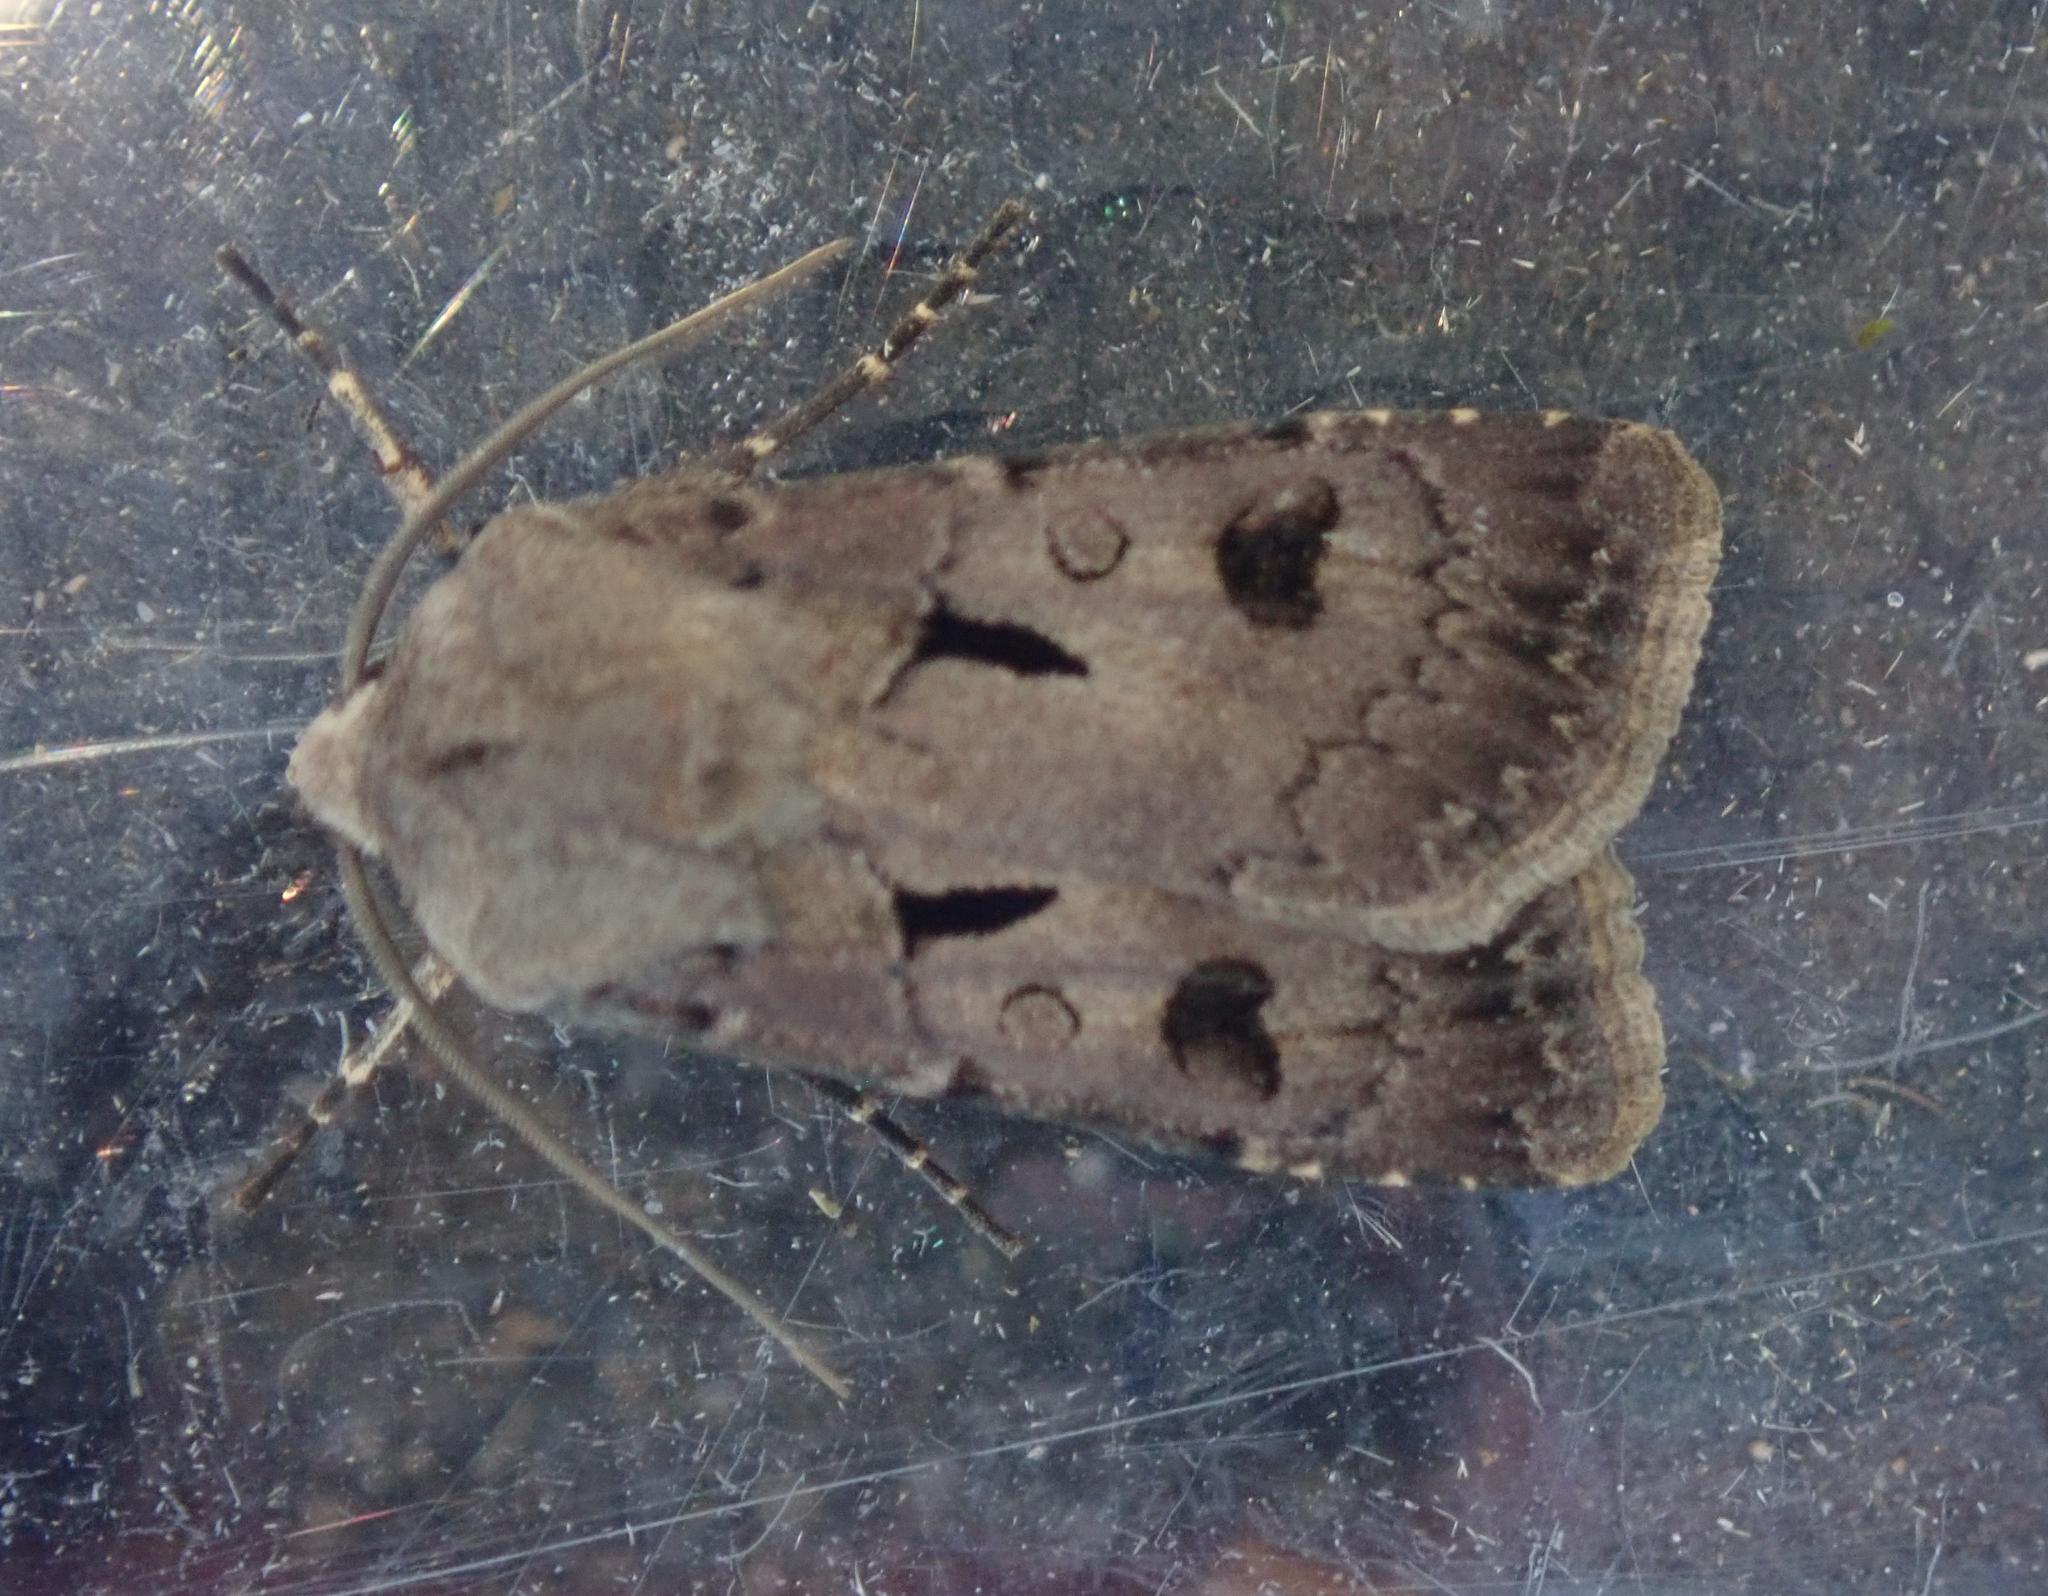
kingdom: Animalia
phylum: Arthropoda
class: Insecta
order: Lepidoptera
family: Noctuidae
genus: Agrotis
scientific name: Agrotis exclamationis
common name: Heart and dart
